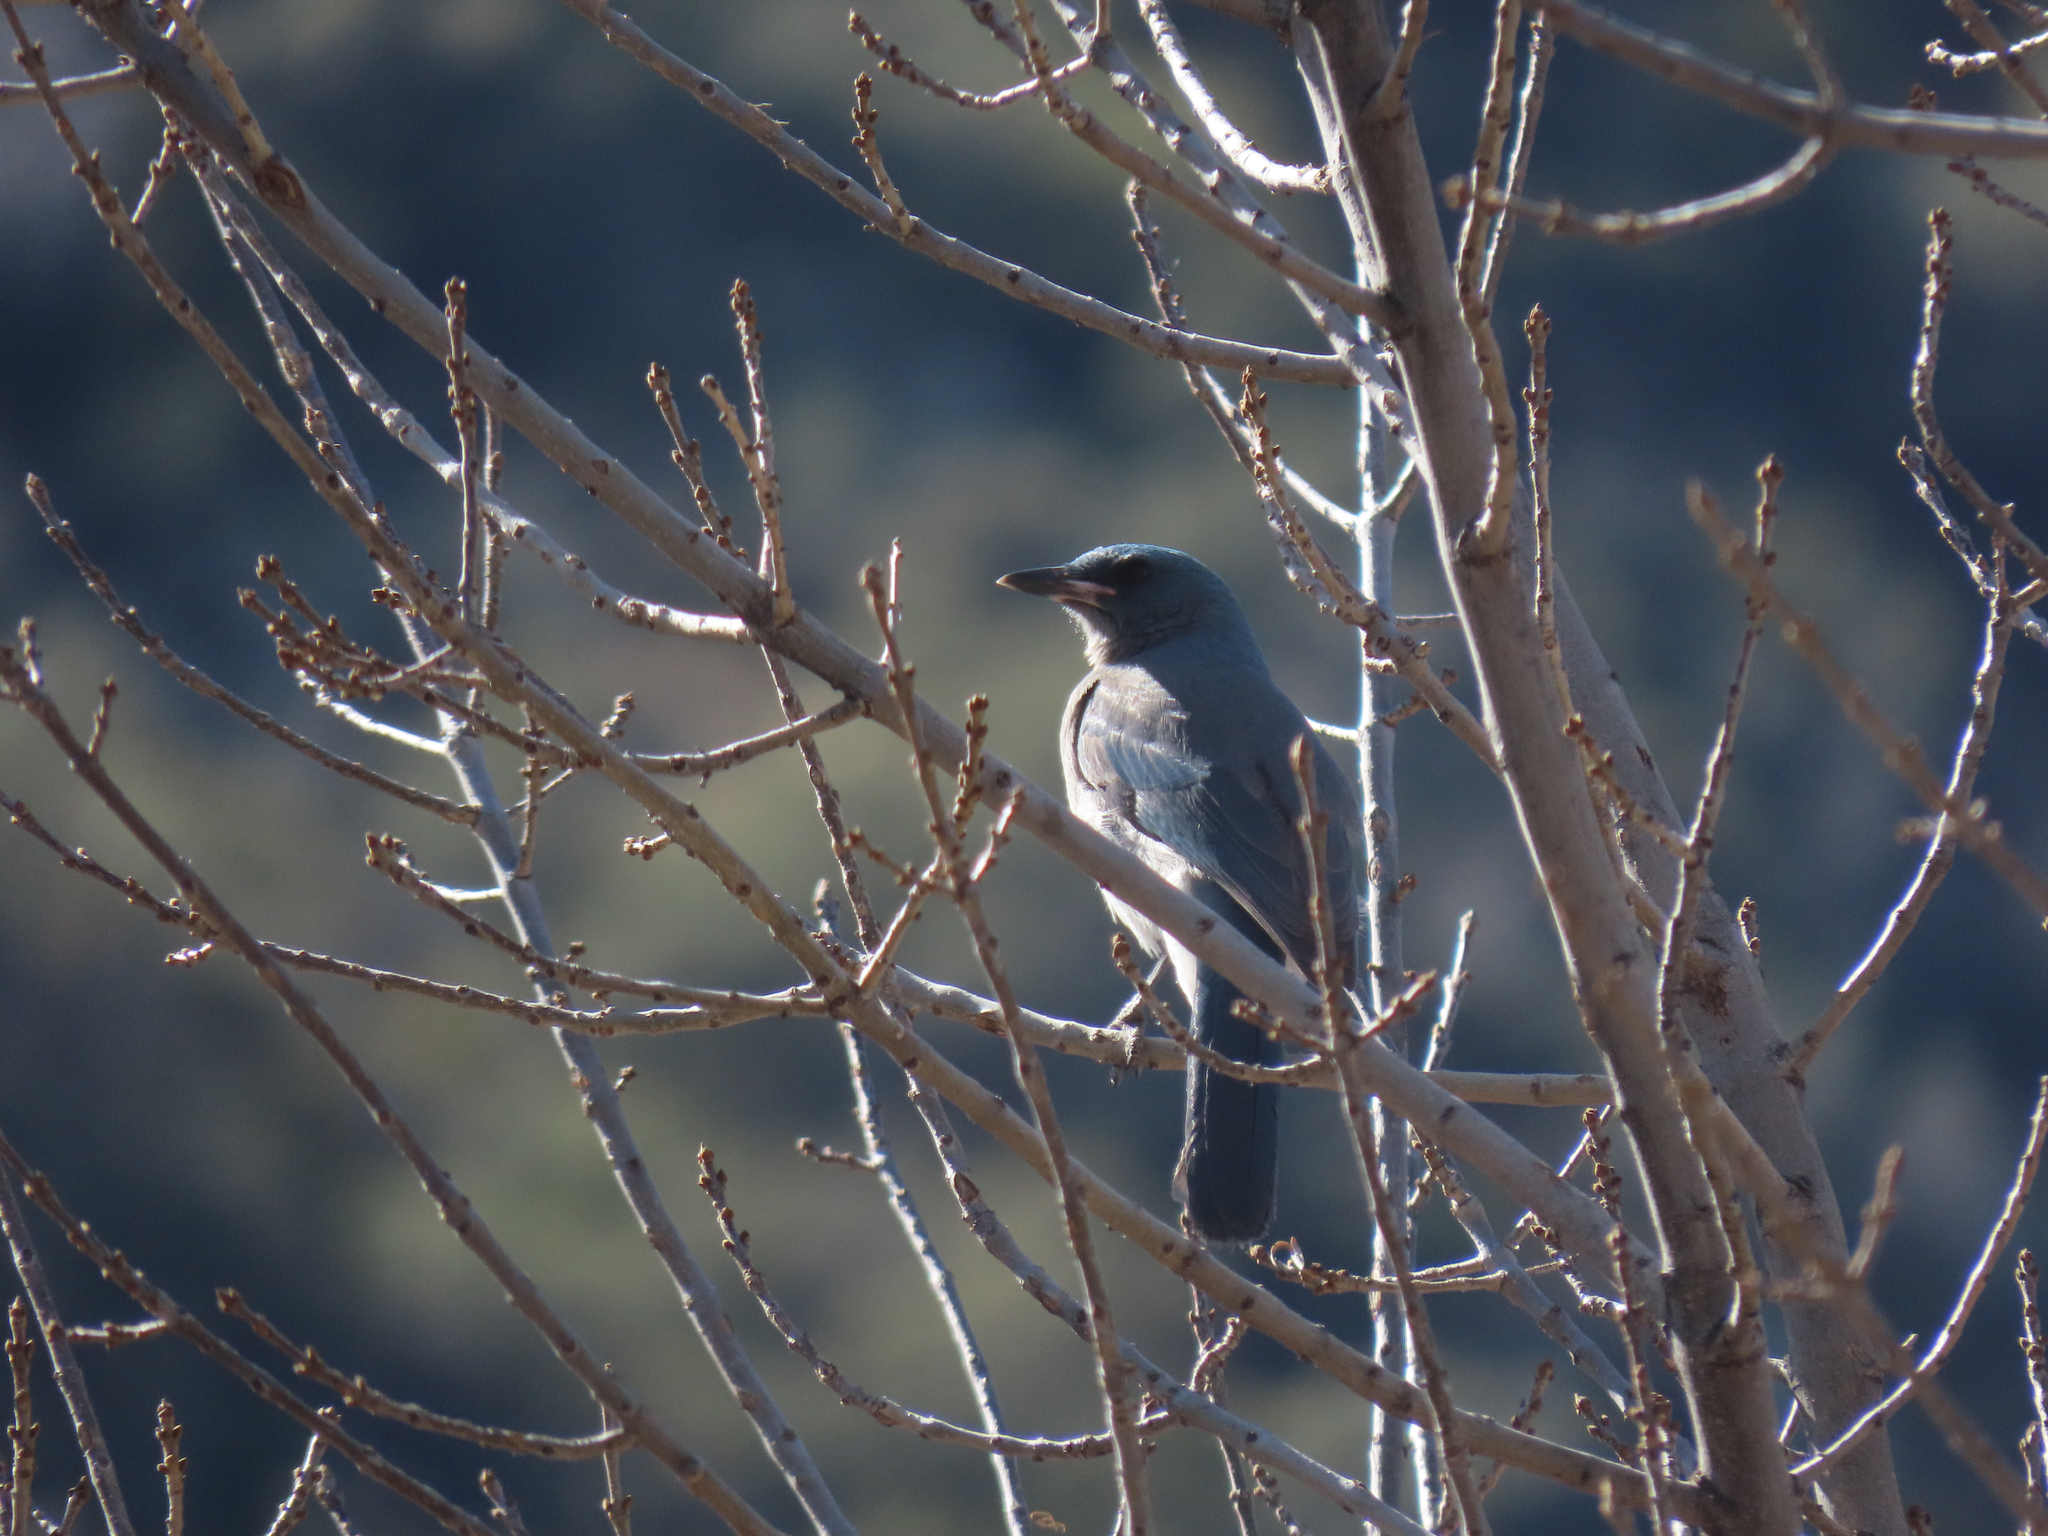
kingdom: Animalia
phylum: Chordata
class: Aves
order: Passeriformes
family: Corvidae
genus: Aphelocoma
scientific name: Aphelocoma wollweberi
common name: Mexican jay
